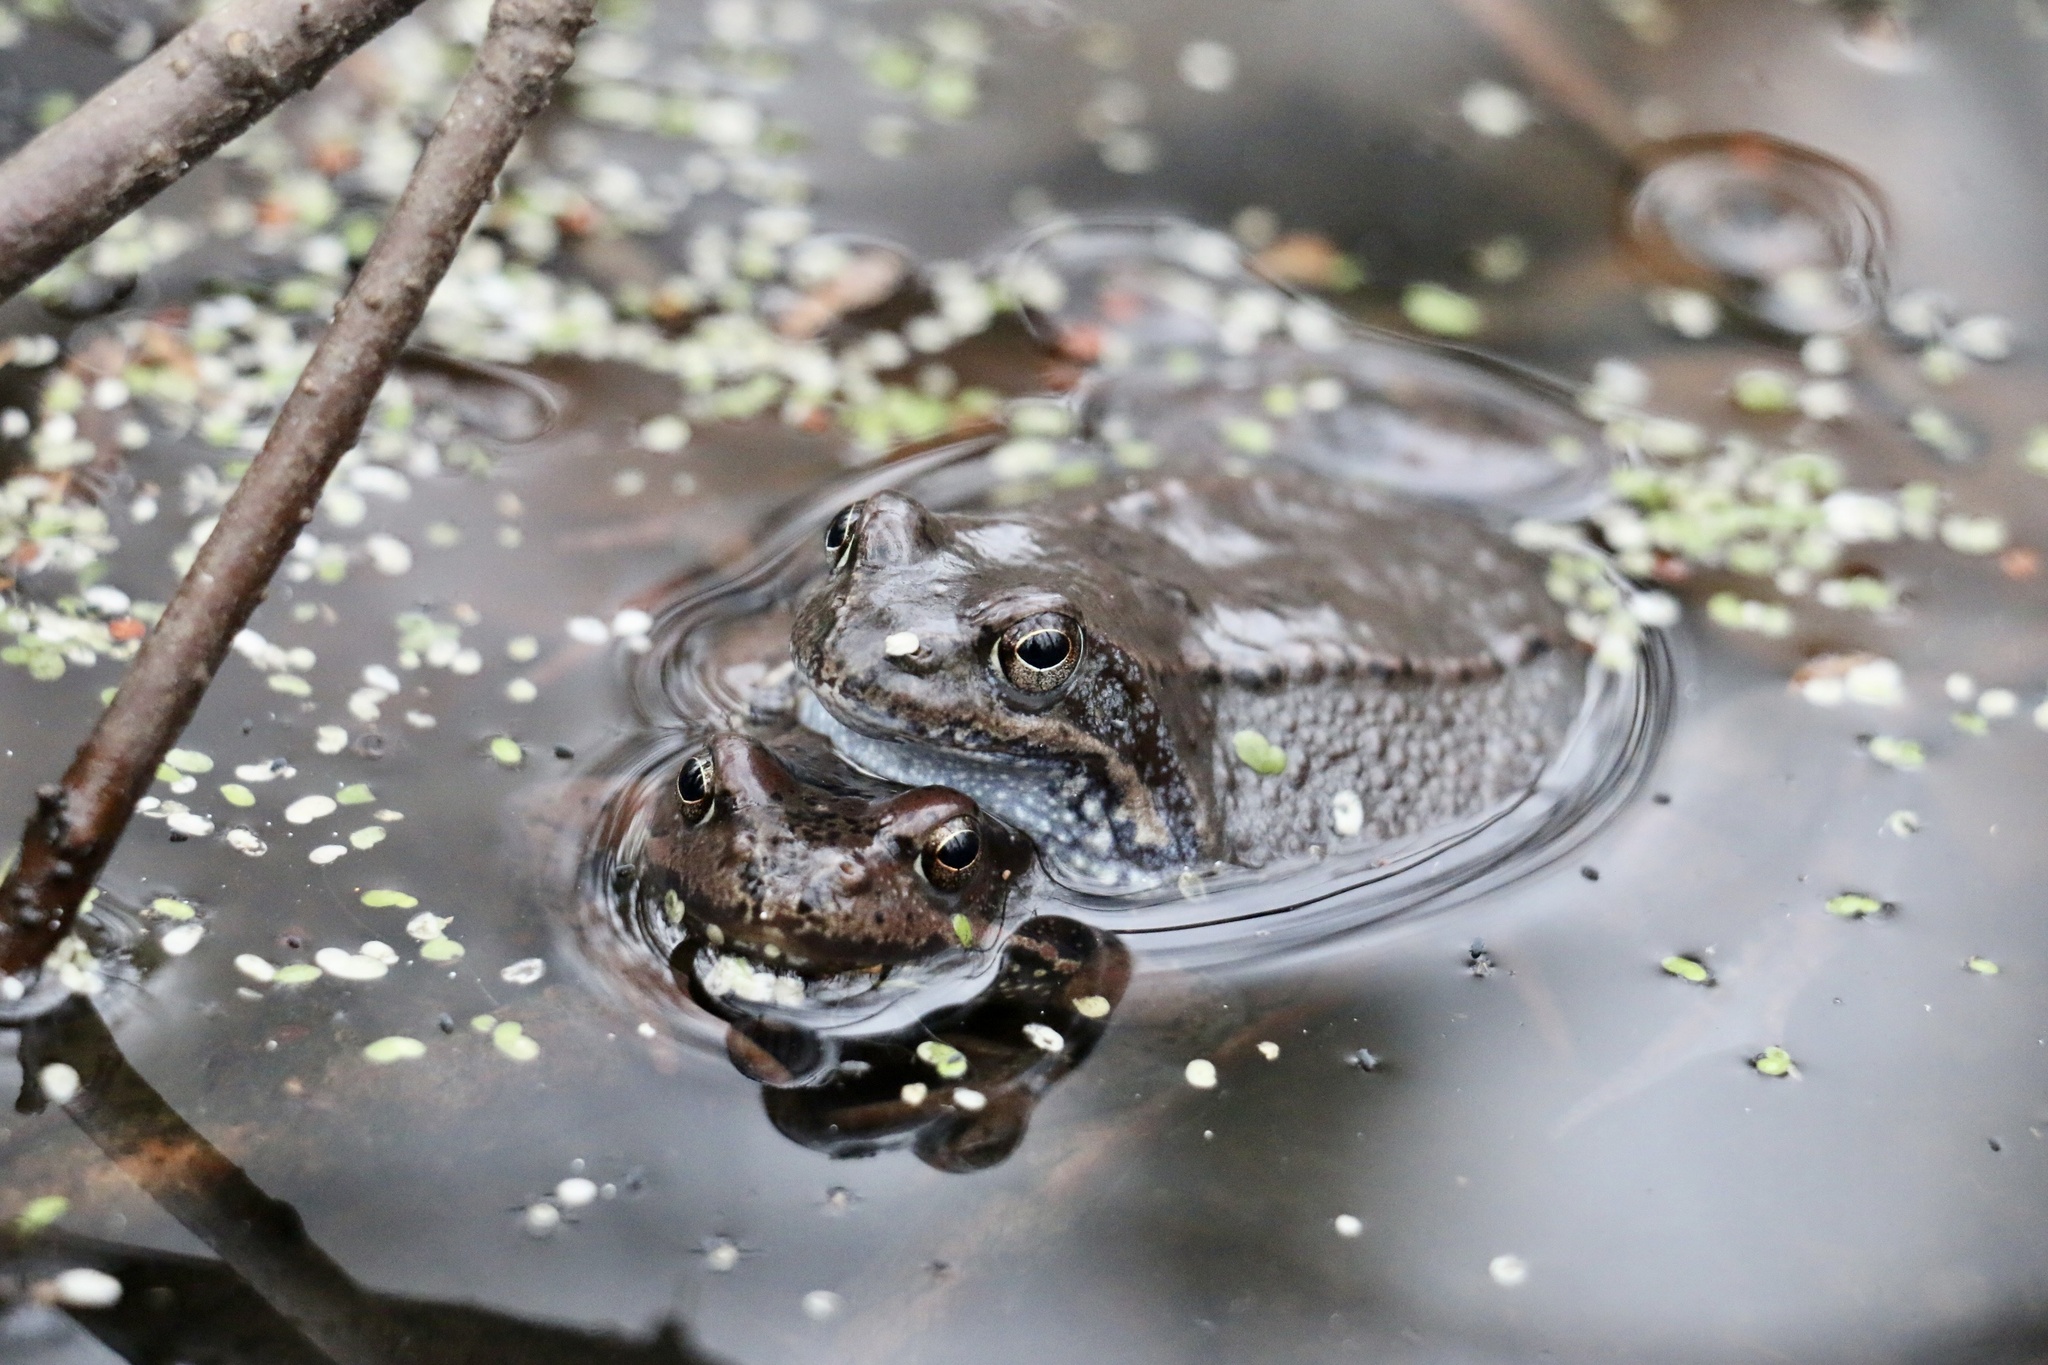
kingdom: Animalia
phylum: Chordata
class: Amphibia
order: Anura
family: Ranidae
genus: Rana
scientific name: Rana temporaria
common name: Common frog
